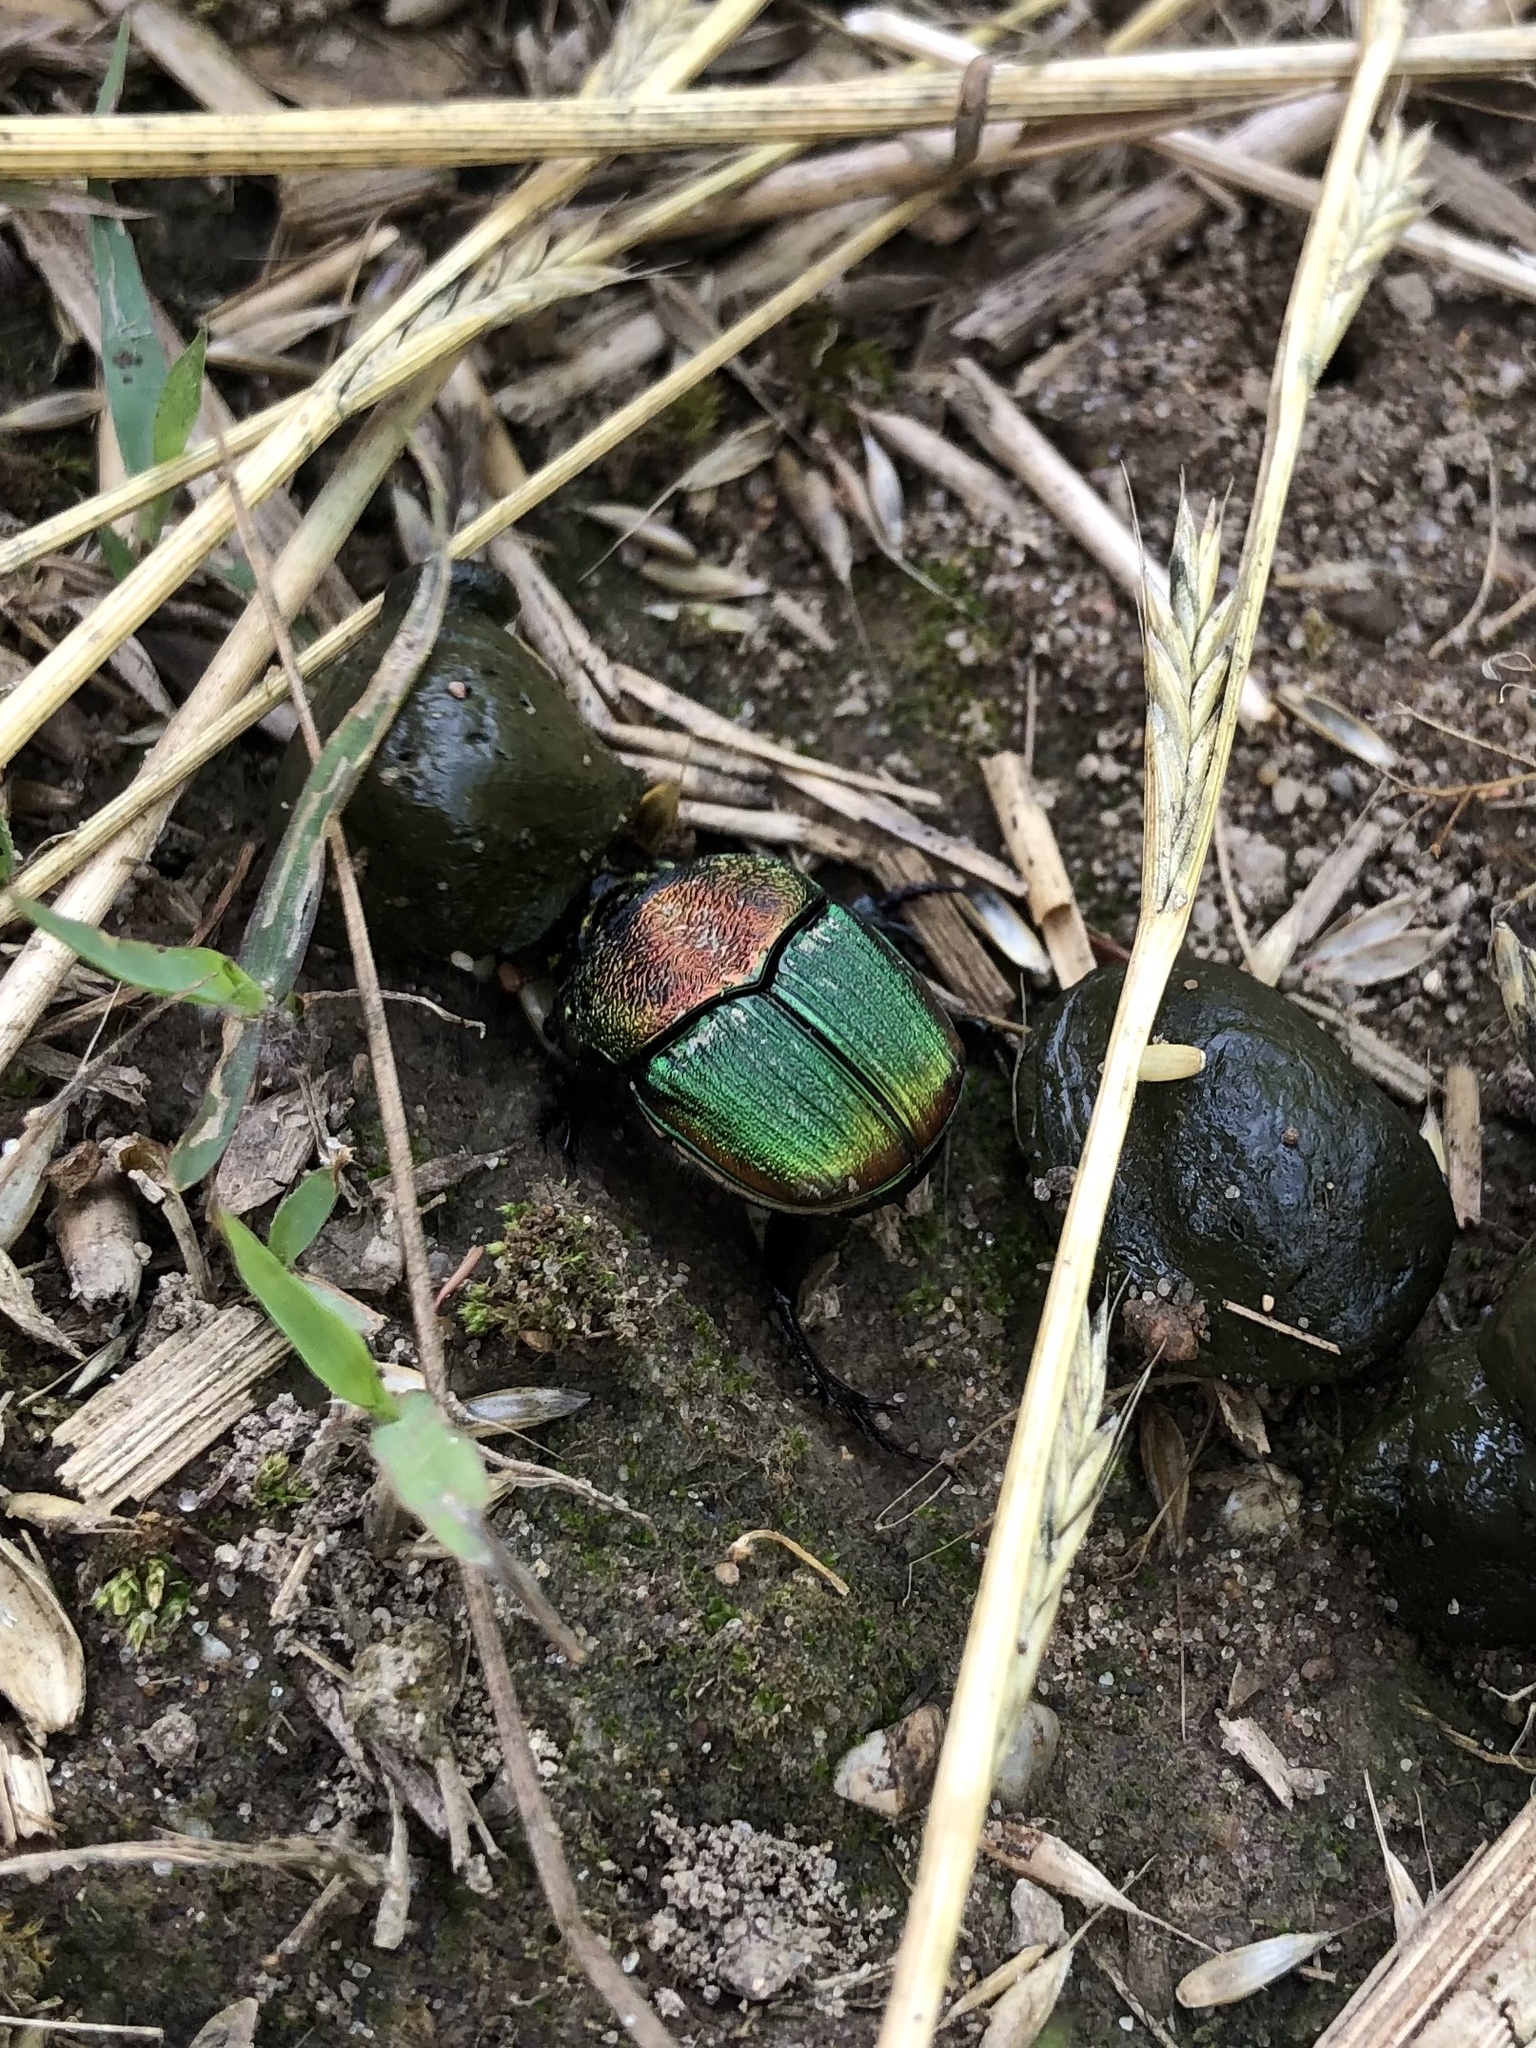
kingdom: Animalia
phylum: Arthropoda
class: Insecta
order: Coleoptera
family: Scarabaeidae
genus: Phanaeus
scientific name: Phanaeus vindex
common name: Rainbow scarab
